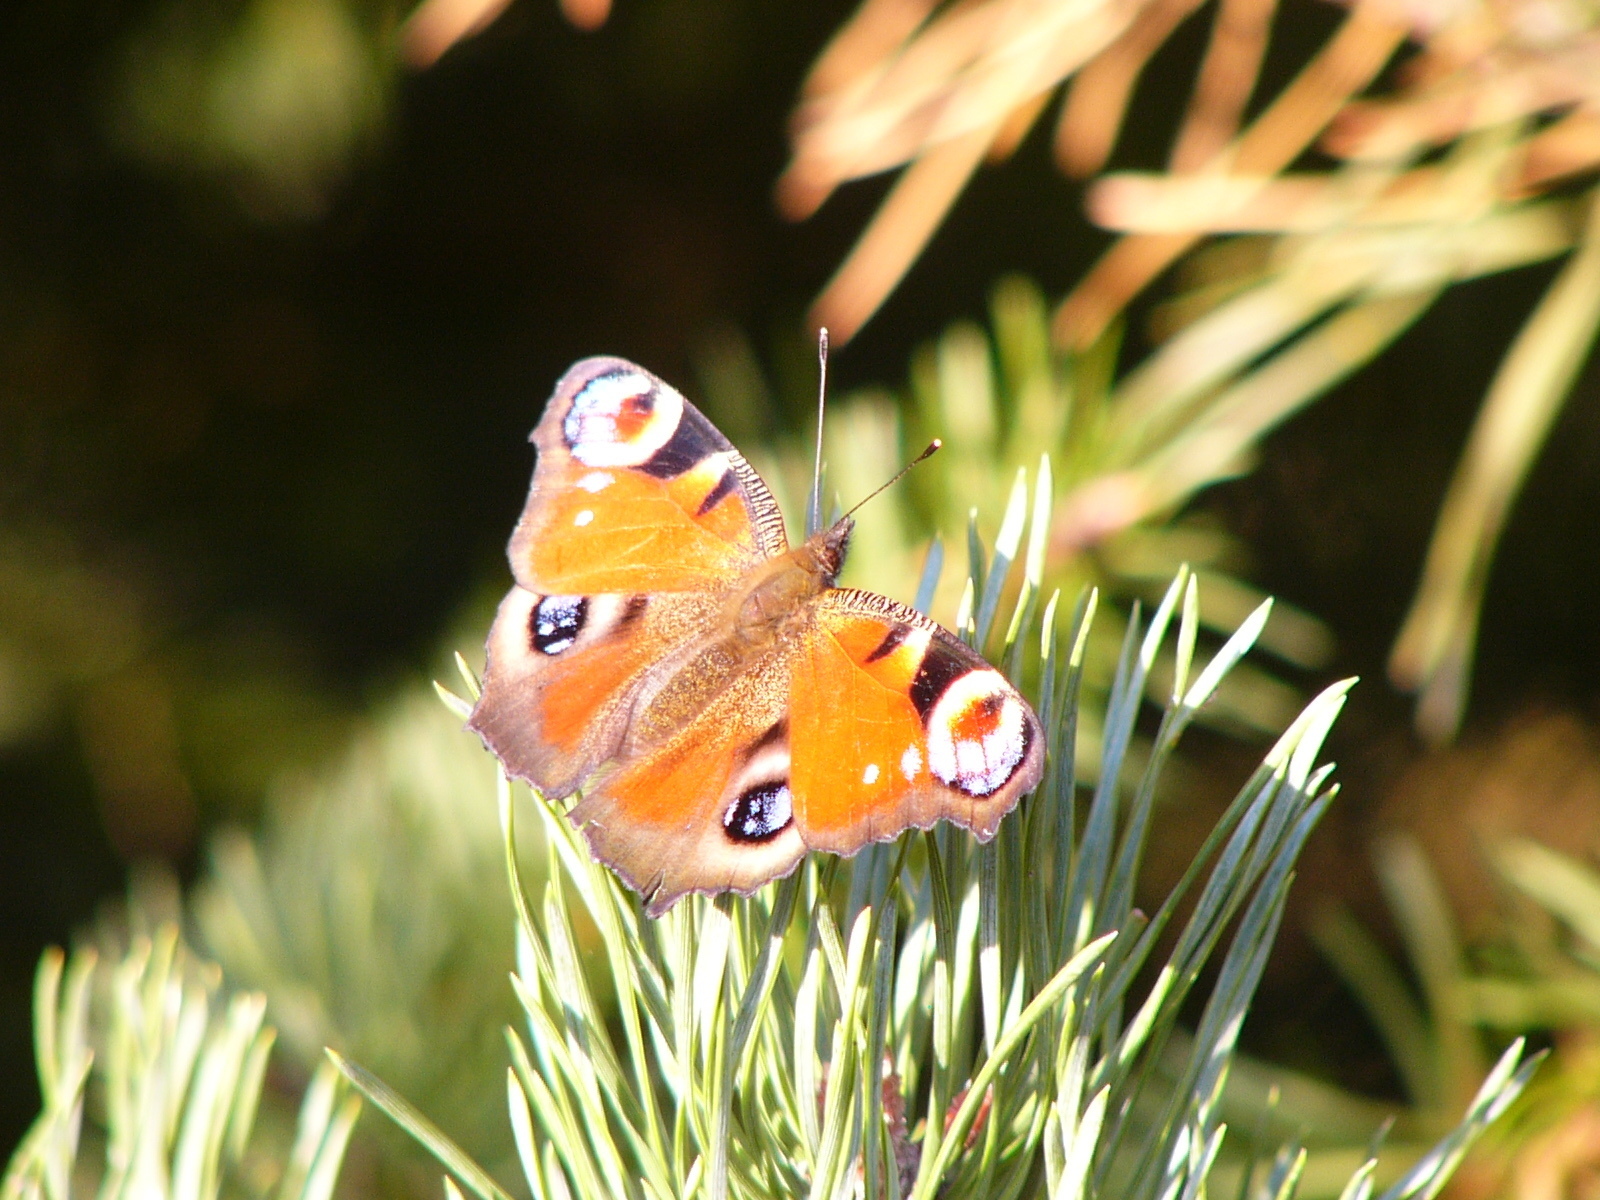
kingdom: Animalia
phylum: Arthropoda
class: Insecta
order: Lepidoptera
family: Nymphalidae
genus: Aglais
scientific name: Aglais io
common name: Peacock
